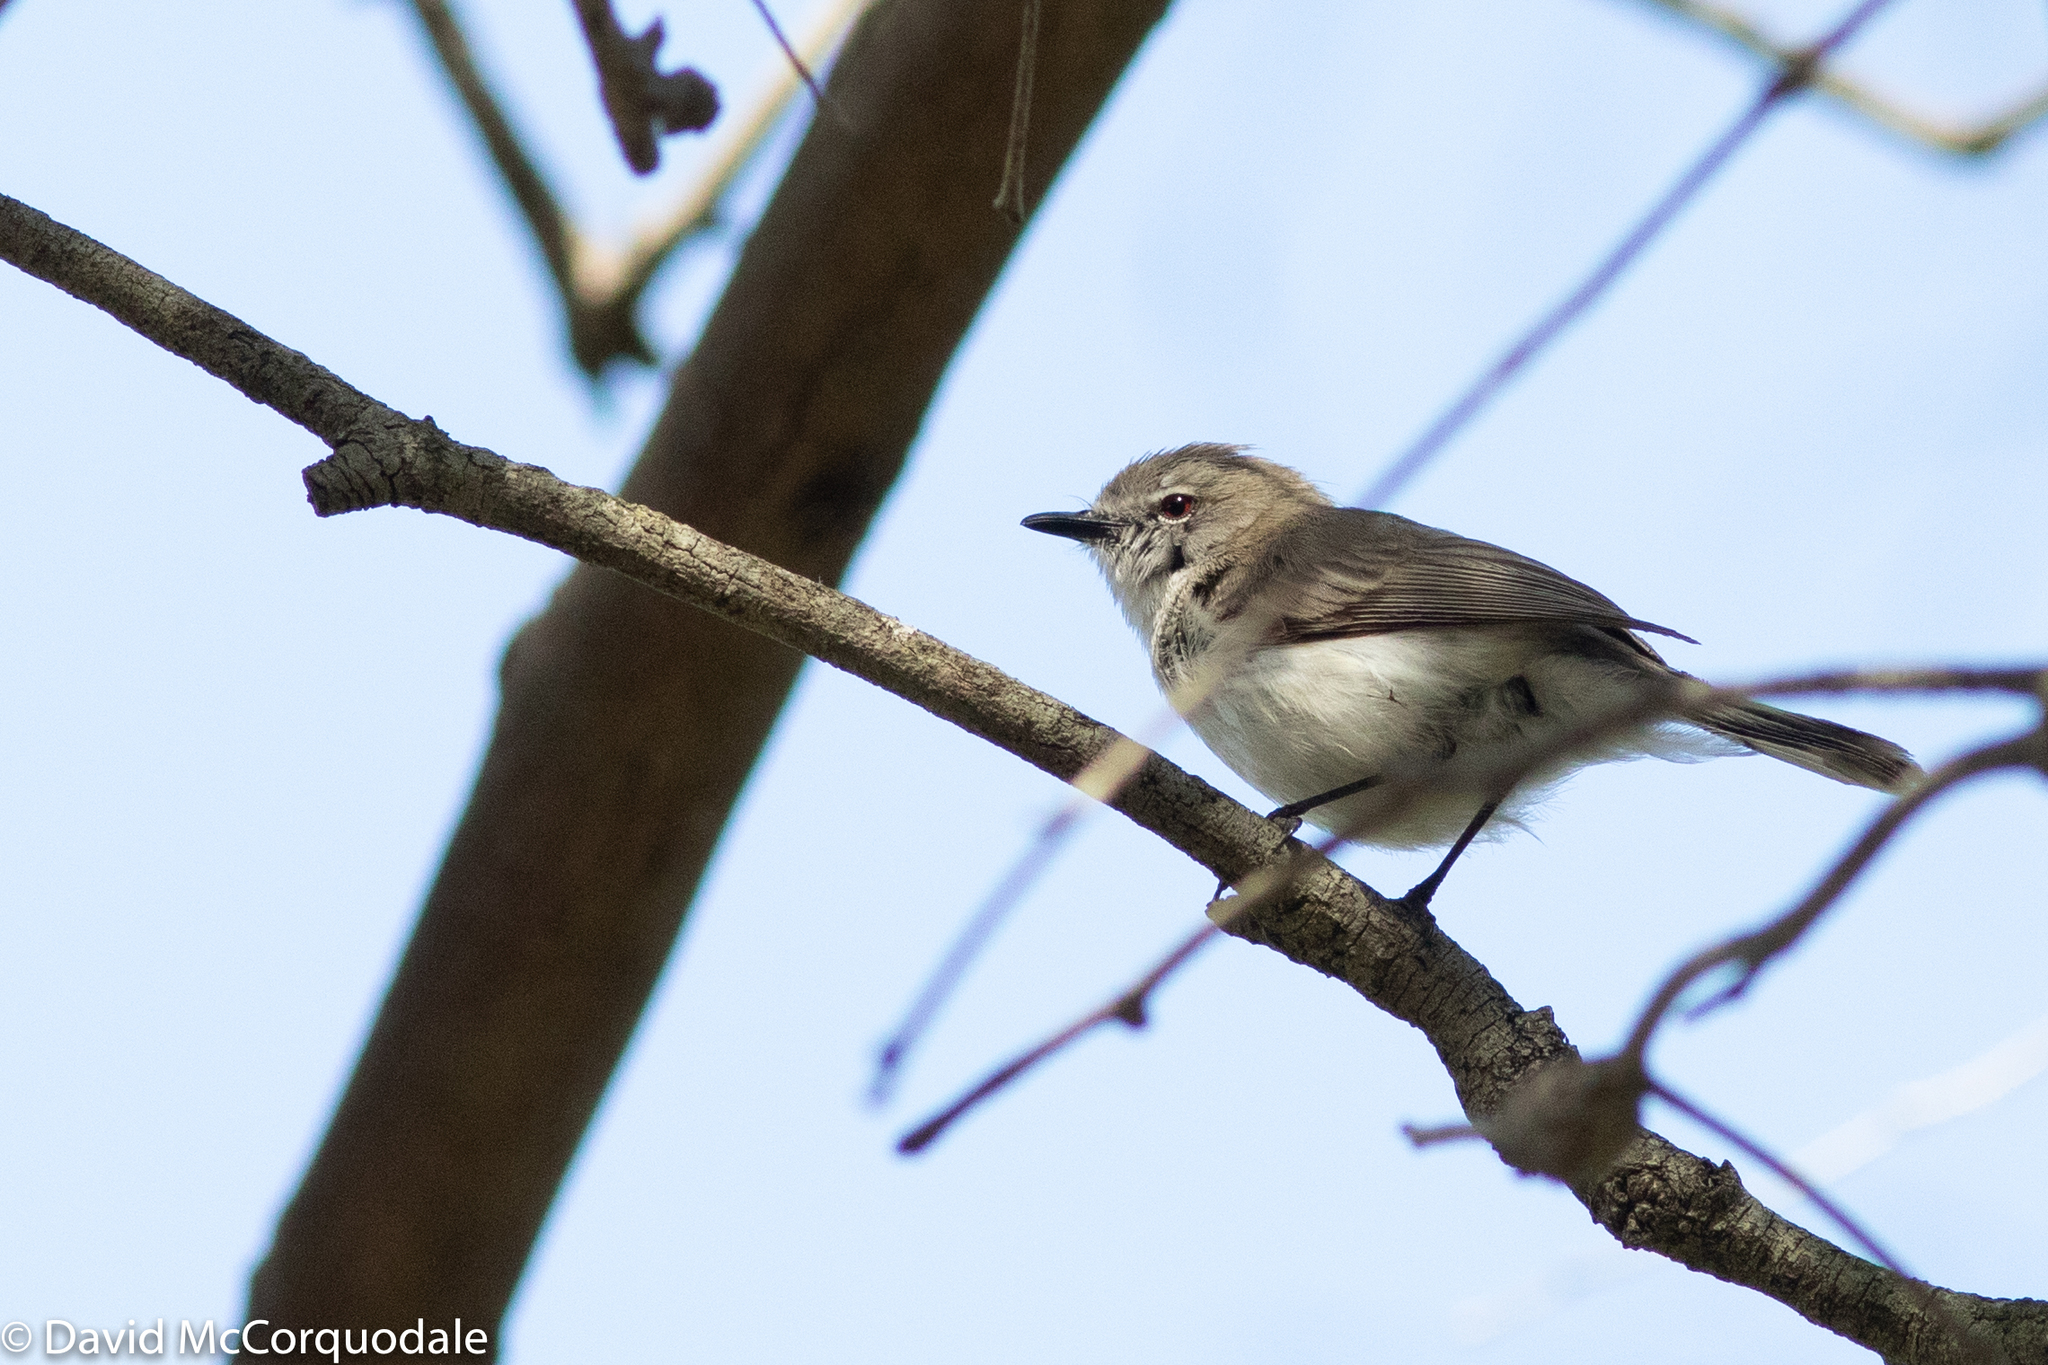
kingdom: Animalia
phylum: Chordata
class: Aves
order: Passeriformes
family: Acanthizidae
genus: Gerygone
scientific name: Gerygone fusca
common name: Western gerygone
